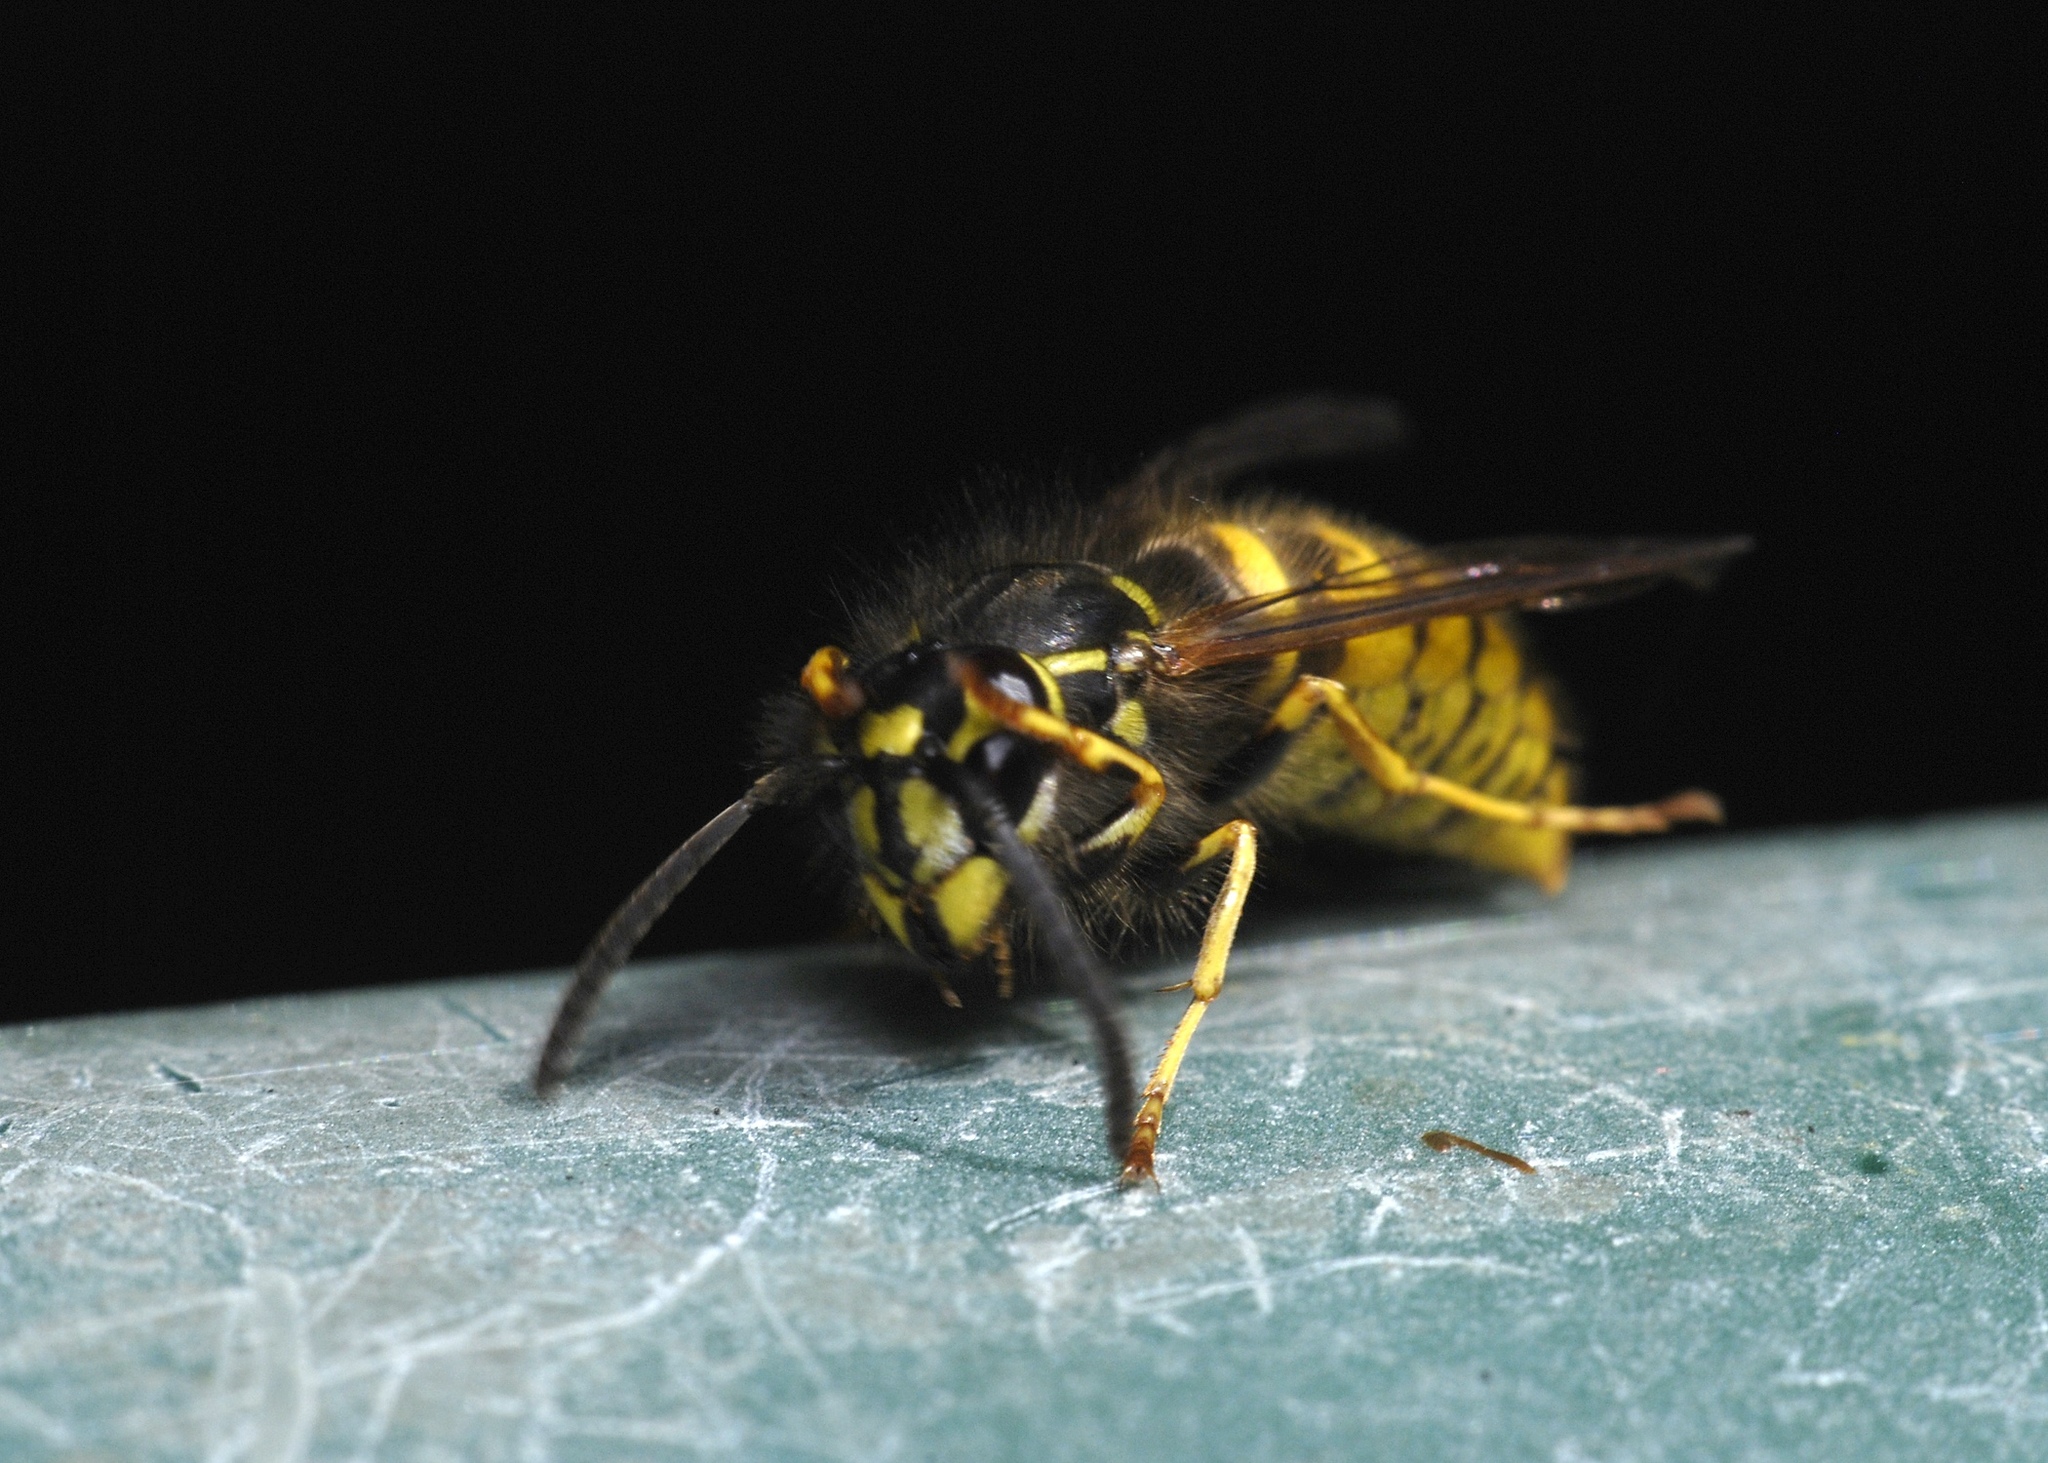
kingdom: Animalia
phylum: Arthropoda
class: Insecta
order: Hymenoptera
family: Vespidae
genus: Vespula
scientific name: Vespula vulgaris
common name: Common wasp
